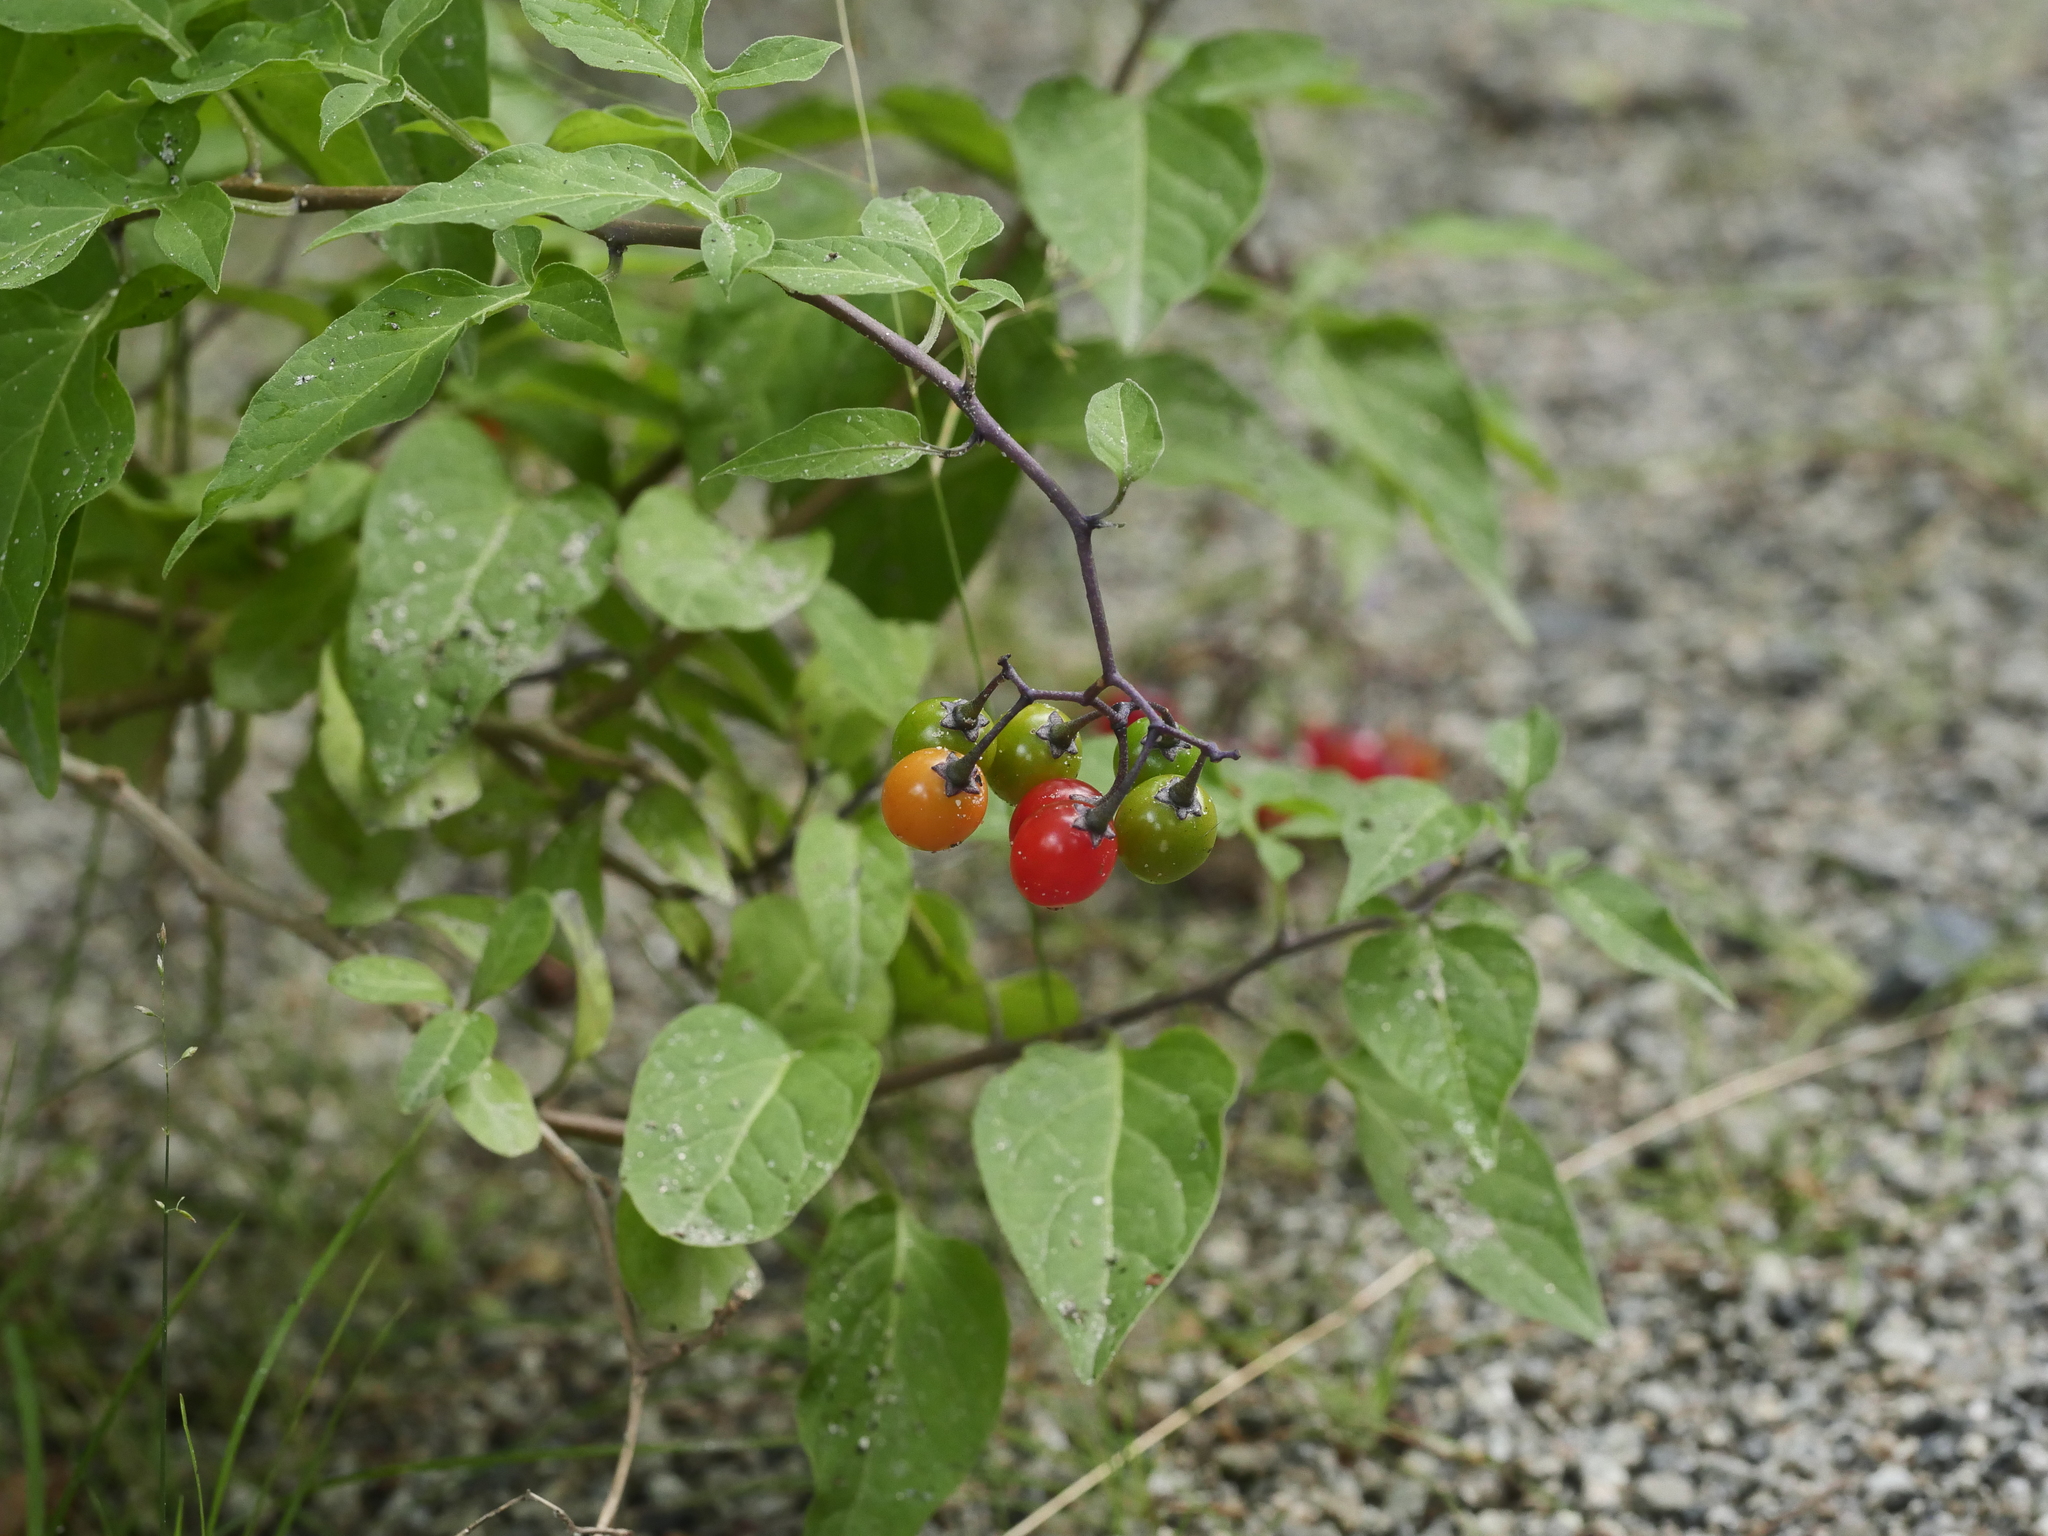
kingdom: Plantae
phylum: Tracheophyta
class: Magnoliopsida
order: Solanales
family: Solanaceae
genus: Solanum
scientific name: Solanum dulcamara
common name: Climbing nightshade
